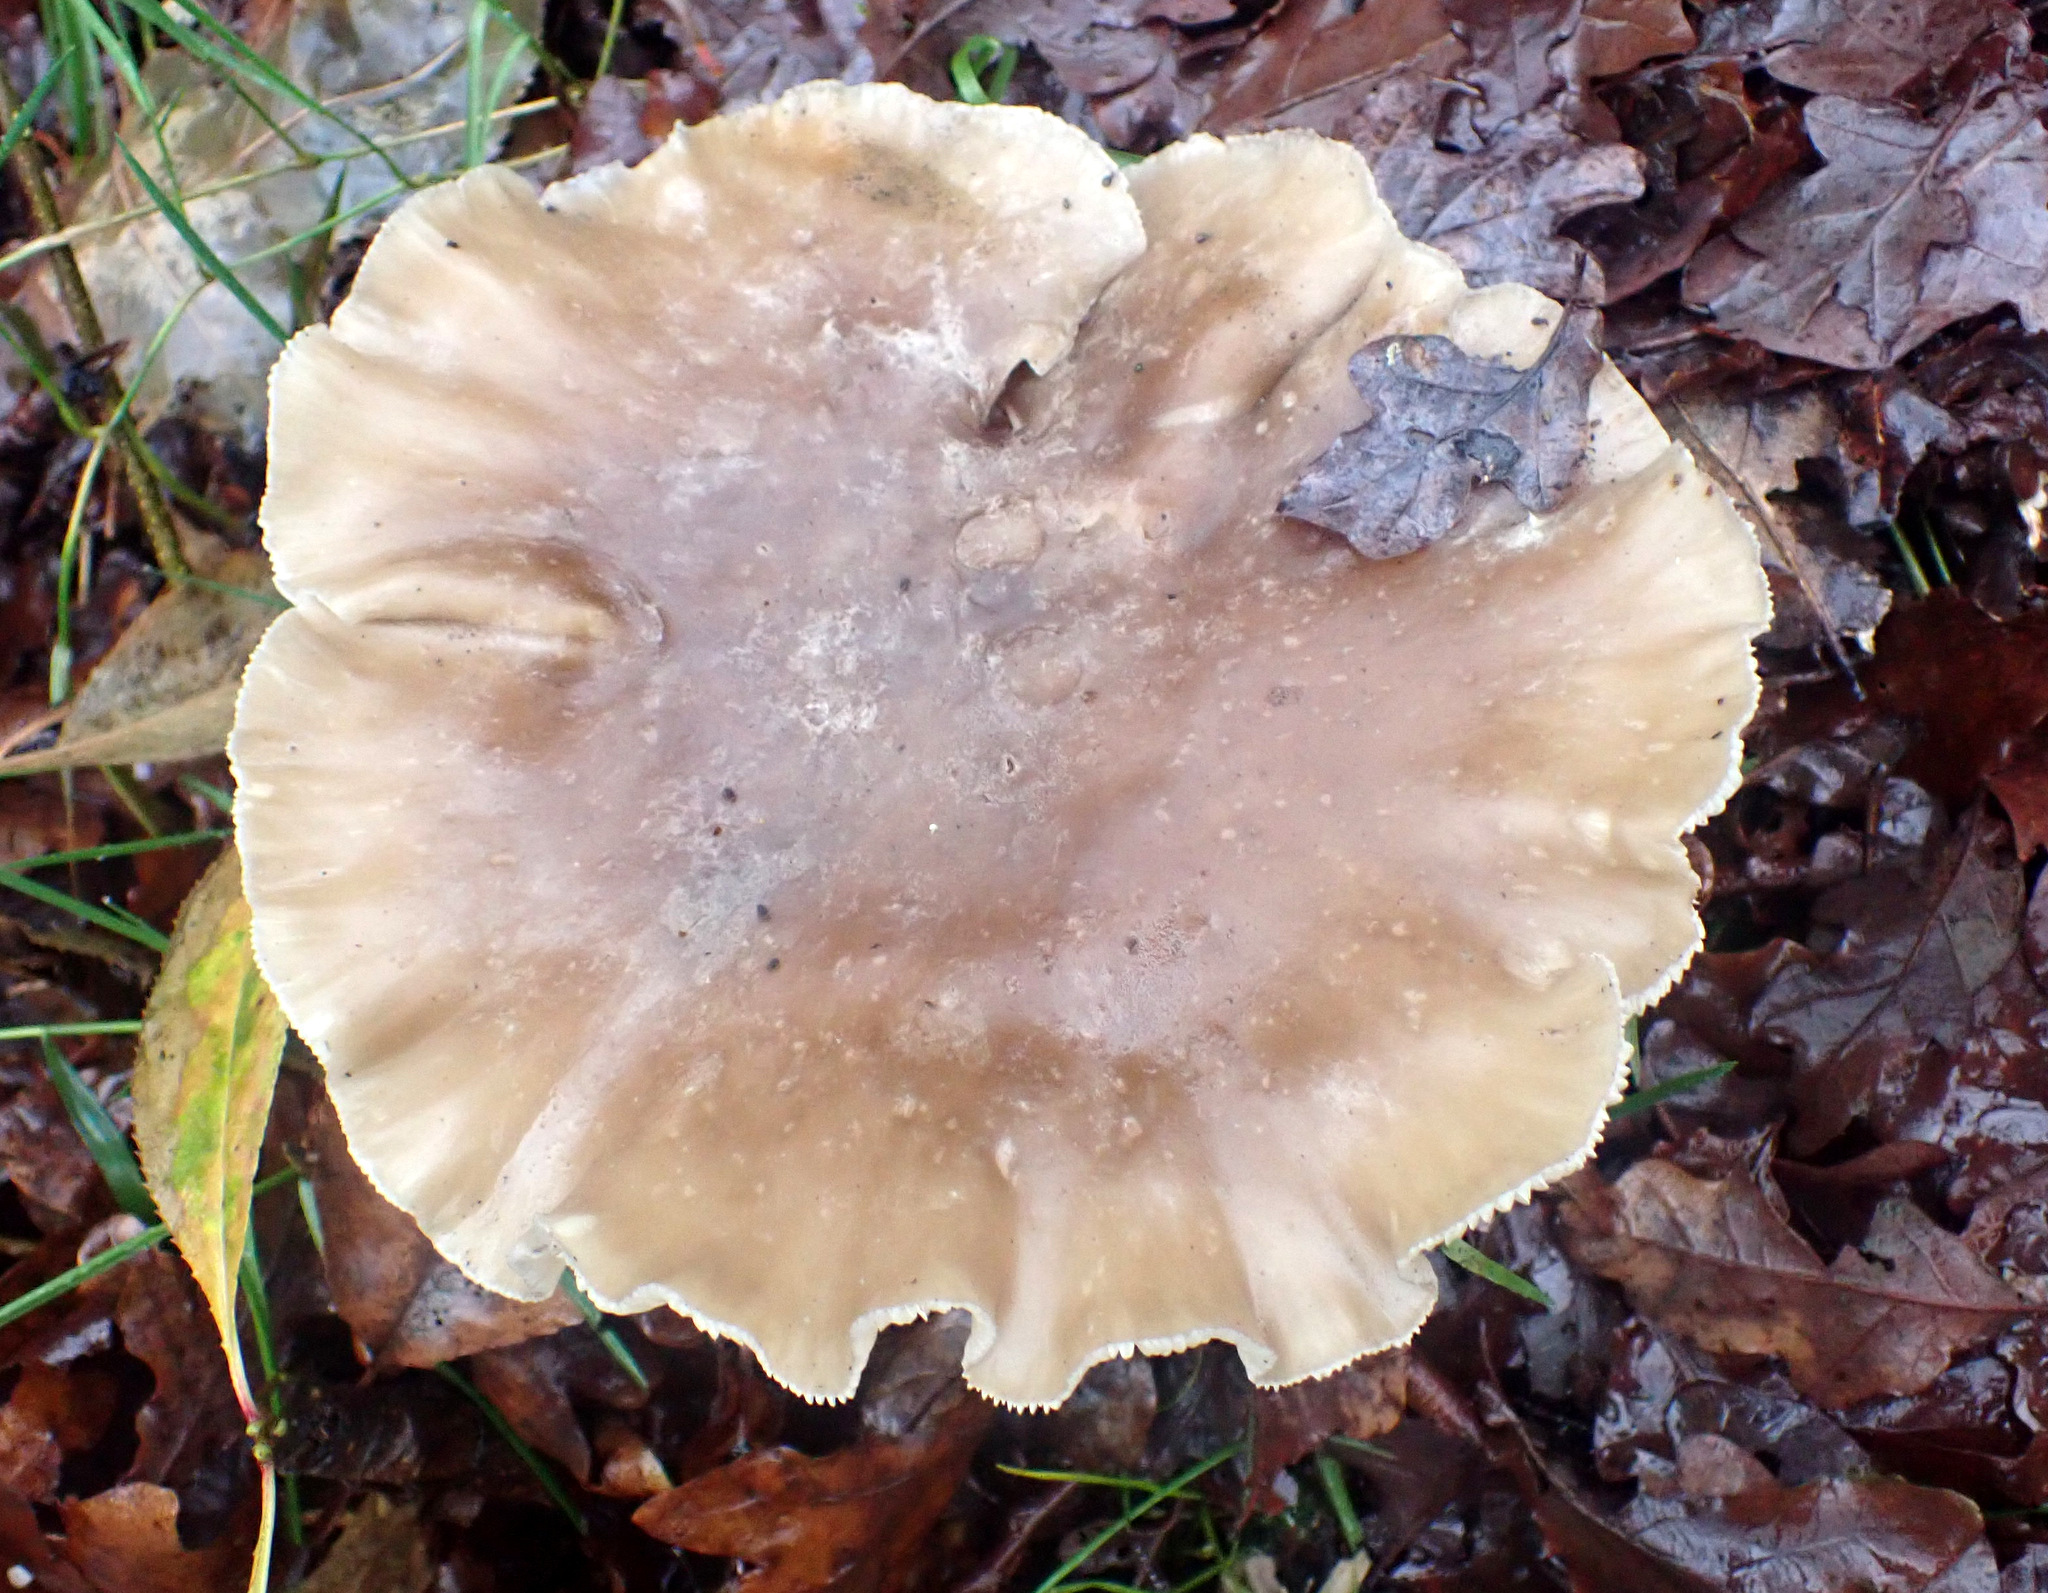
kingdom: Fungi
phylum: Basidiomycota
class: Agaricomycetes
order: Agaricales
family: Tricholomataceae
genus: Clitocybe
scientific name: Clitocybe nebularis
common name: Clouded agaric
